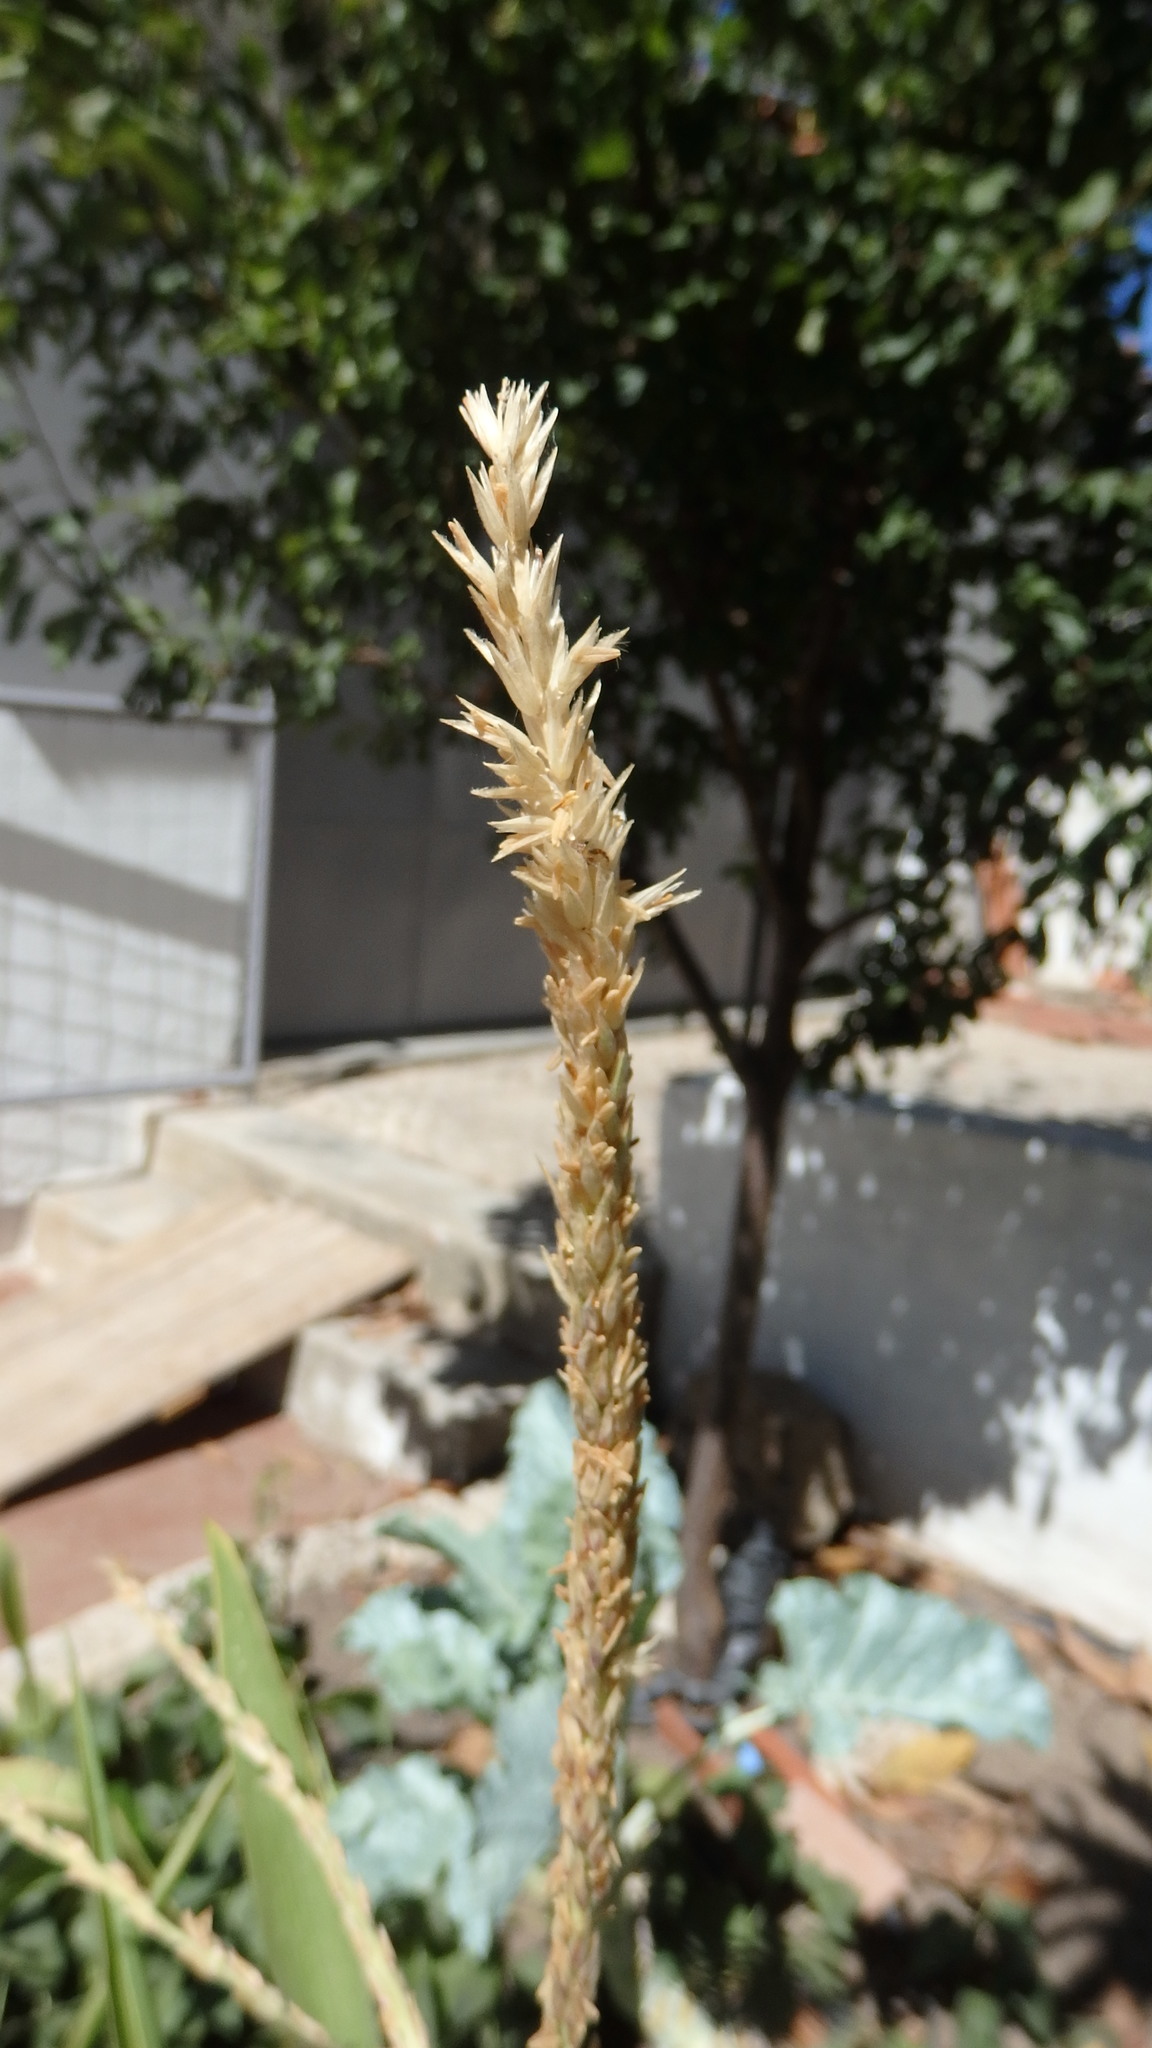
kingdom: Plantae
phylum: Tracheophyta
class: Liliopsida
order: Poales
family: Poaceae
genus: Zea
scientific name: Zea mays
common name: Maize
